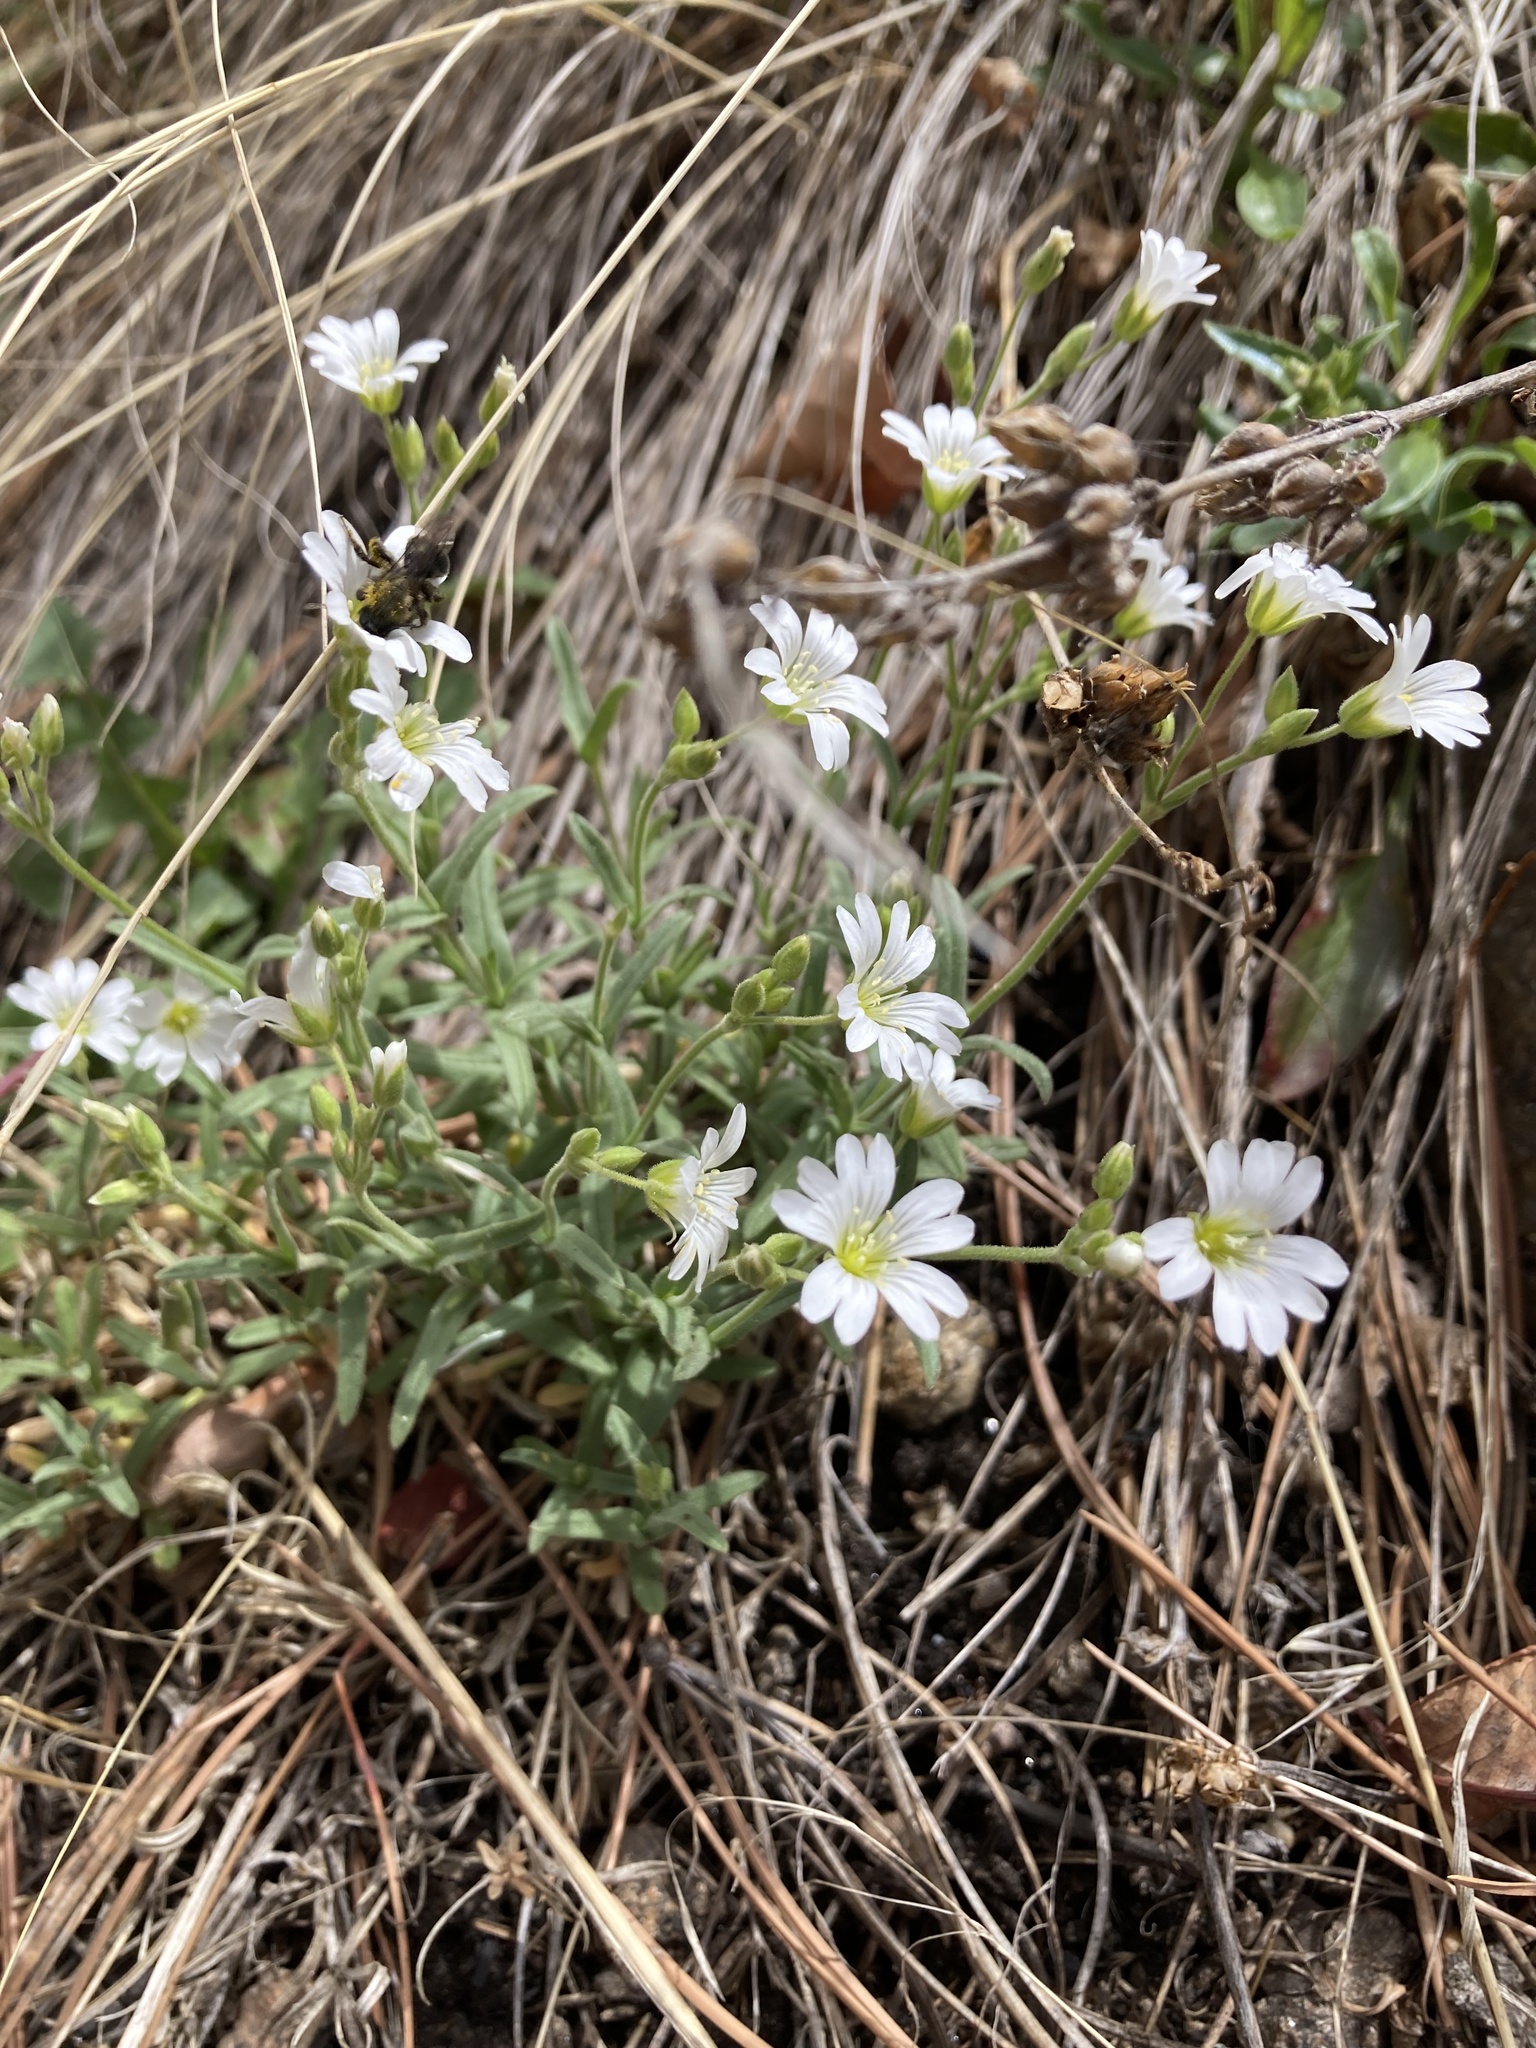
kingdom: Plantae
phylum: Tracheophyta
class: Magnoliopsida
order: Caryophyllales
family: Caryophyllaceae
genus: Cerastium
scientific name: Cerastium arvense
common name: Field mouse-ear
